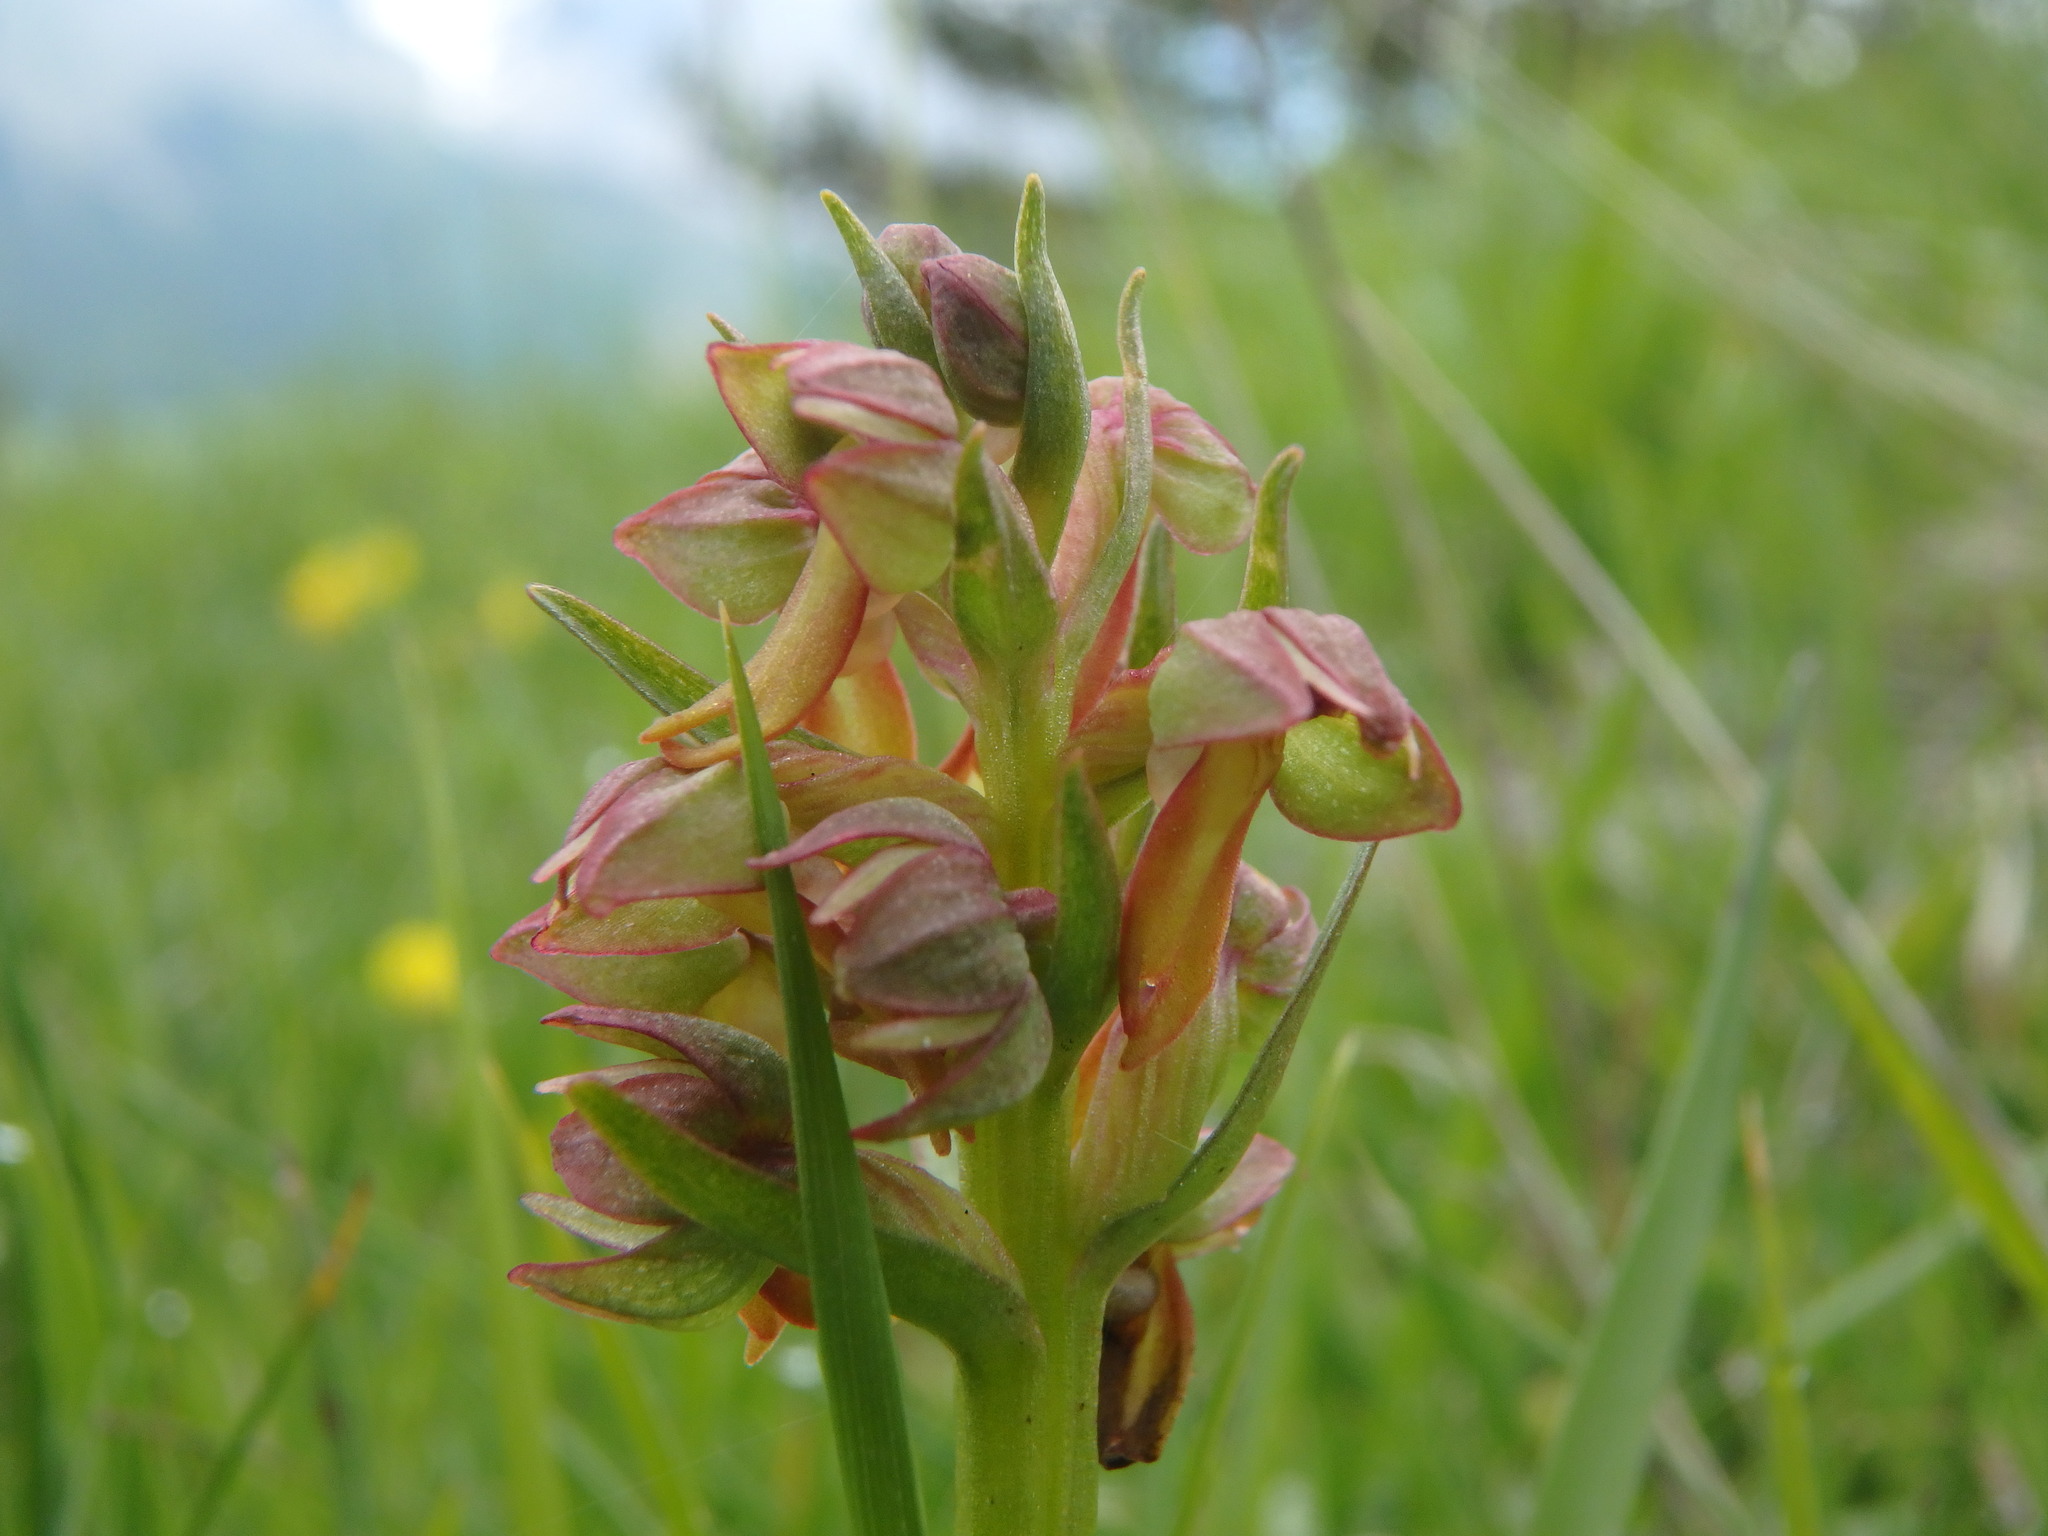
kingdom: Plantae
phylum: Tracheophyta
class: Liliopsida
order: Asparagales
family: Orchidaceae
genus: Dactylorhiza
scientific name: Dactylorhiza viridis
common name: Longbract frog orchid
